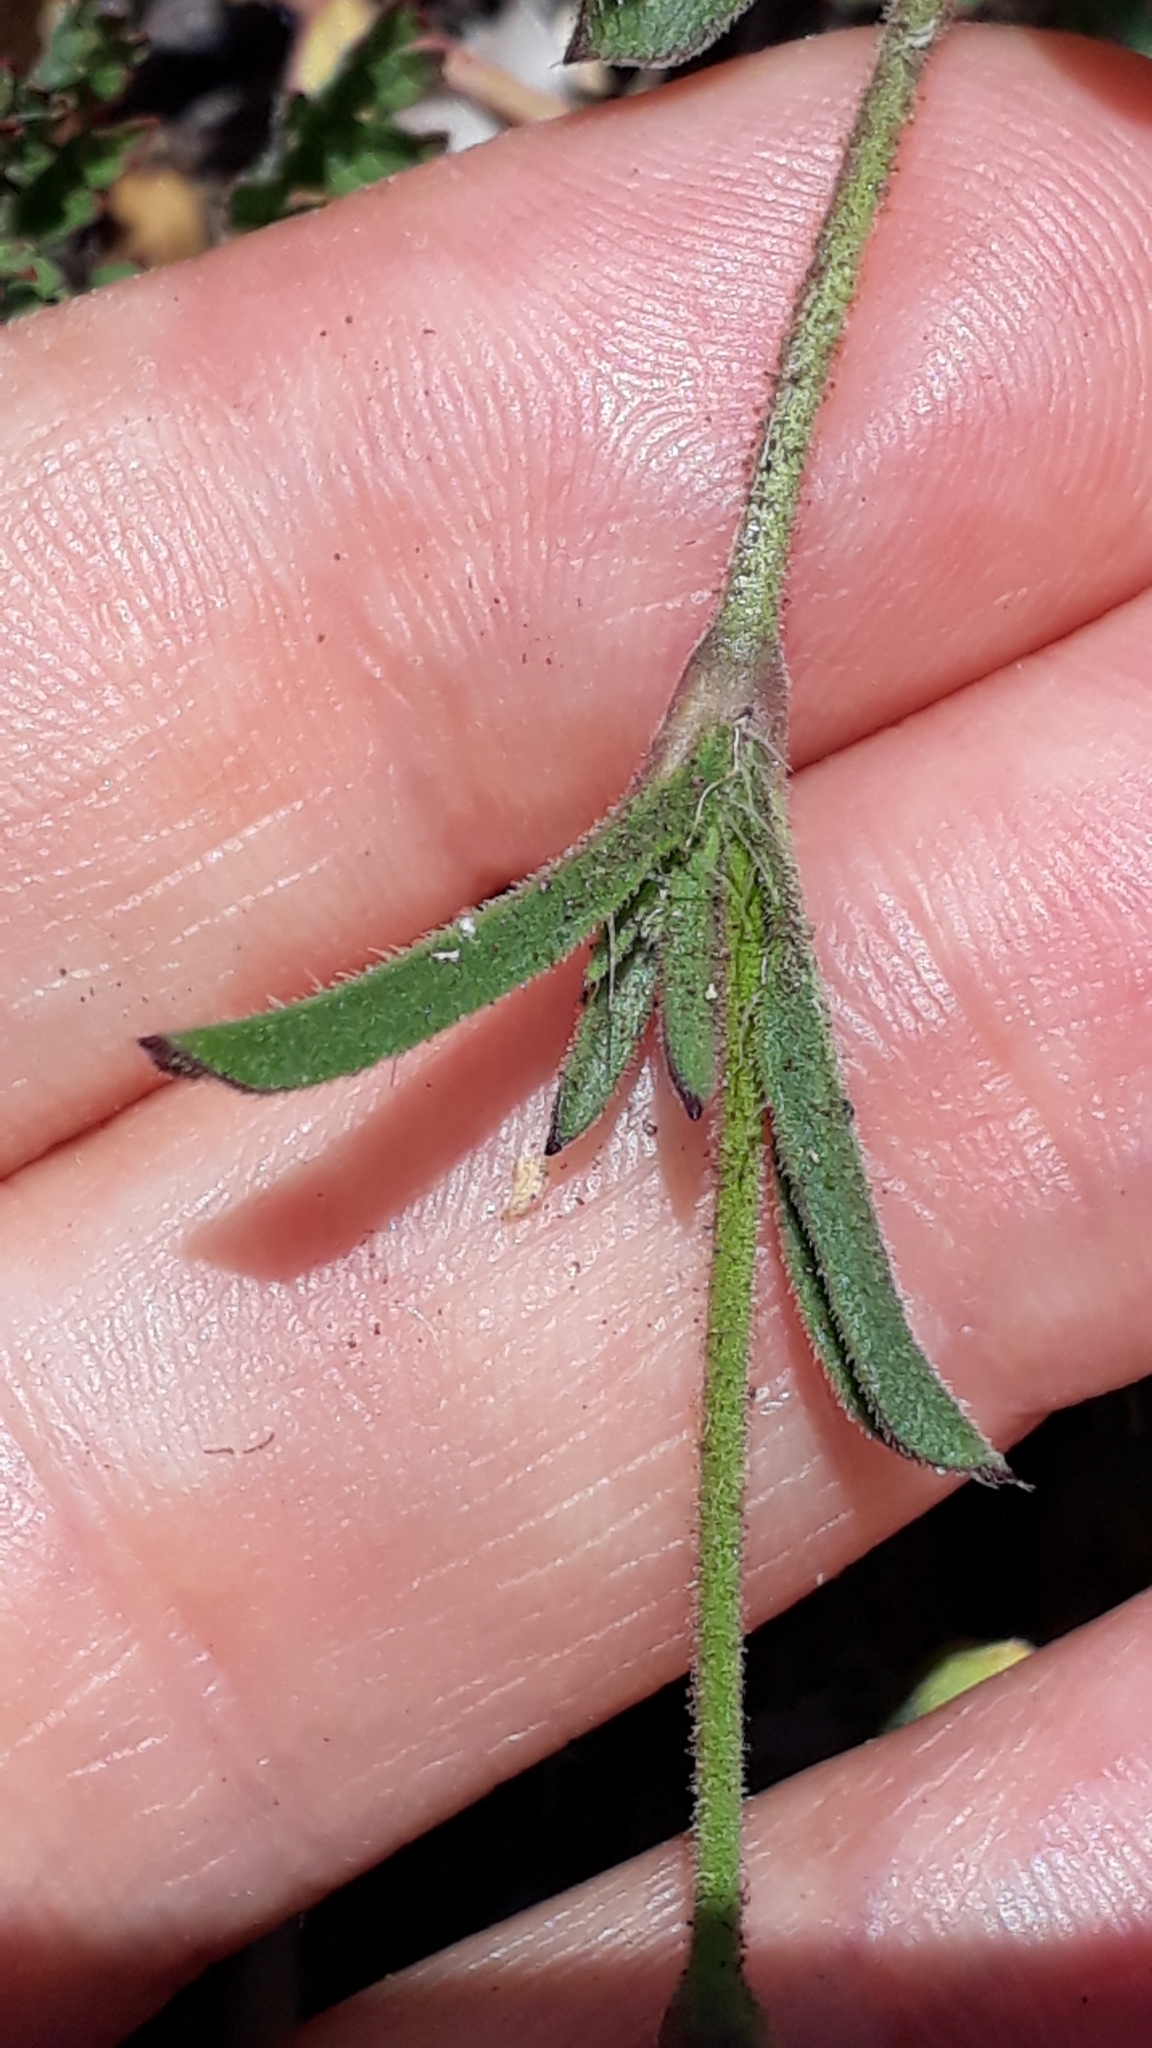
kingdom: Plantae
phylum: Tracheophyta
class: Magnoliopsida
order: Caryophyllales
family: Caryophyllaceae
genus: Silene
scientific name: Silene gallica
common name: Small-flowered catchfly
